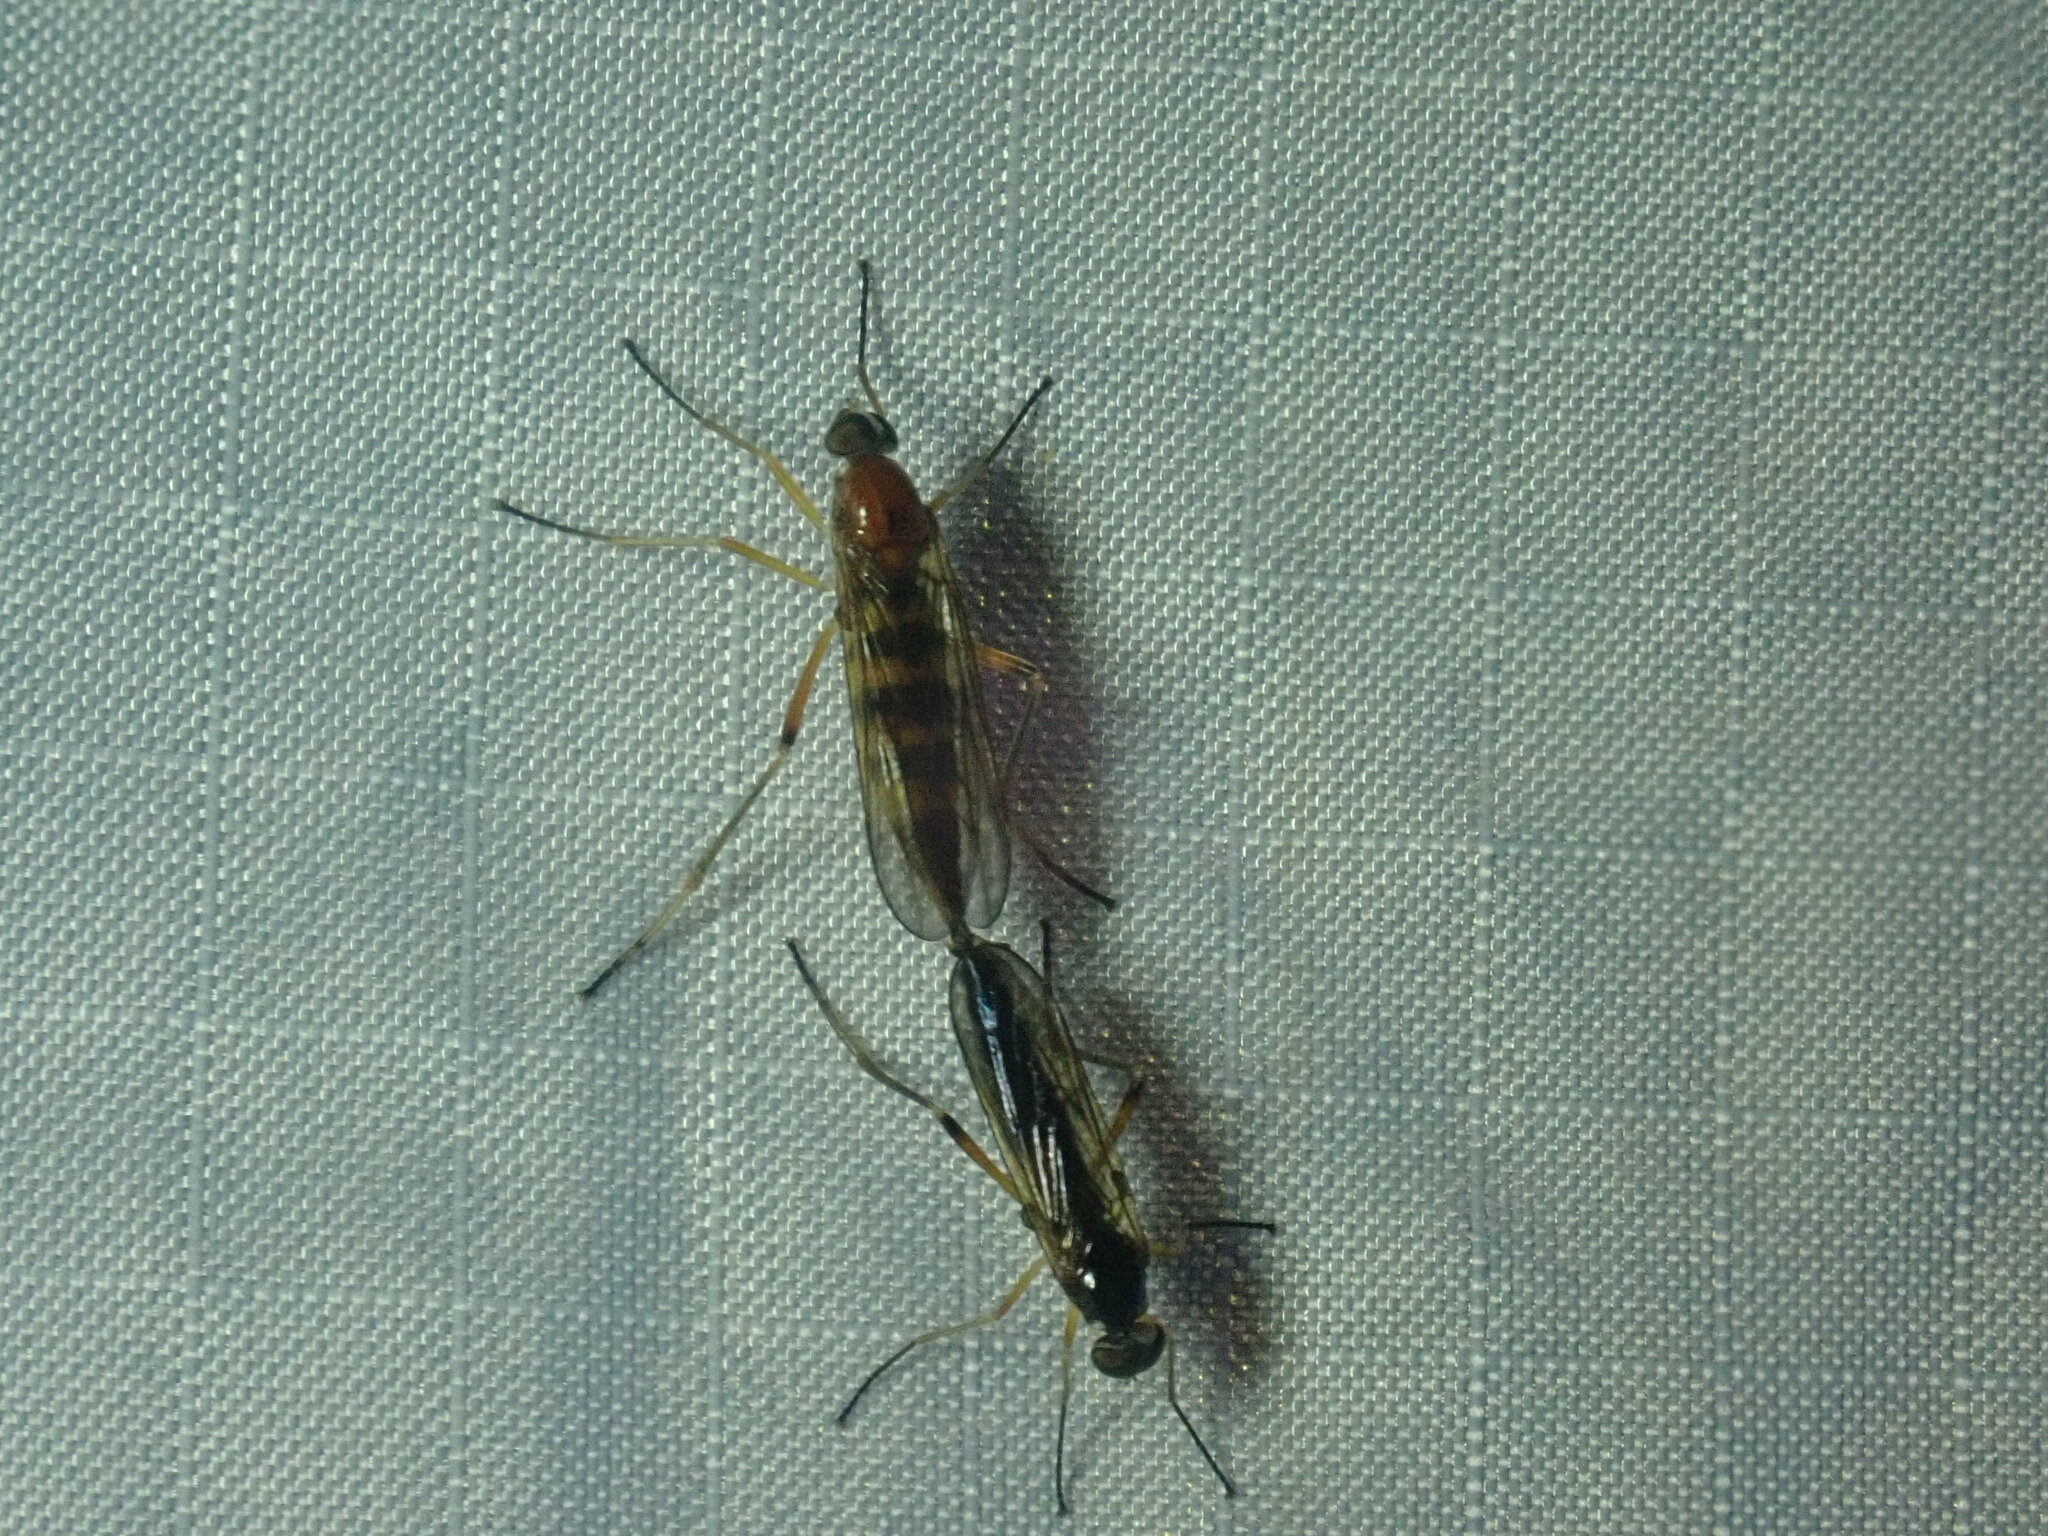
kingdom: Animalia
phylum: Arthropoda
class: Insecta
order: Diptera
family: Xylophagidae
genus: Dialysis
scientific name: Dialysis elongata
